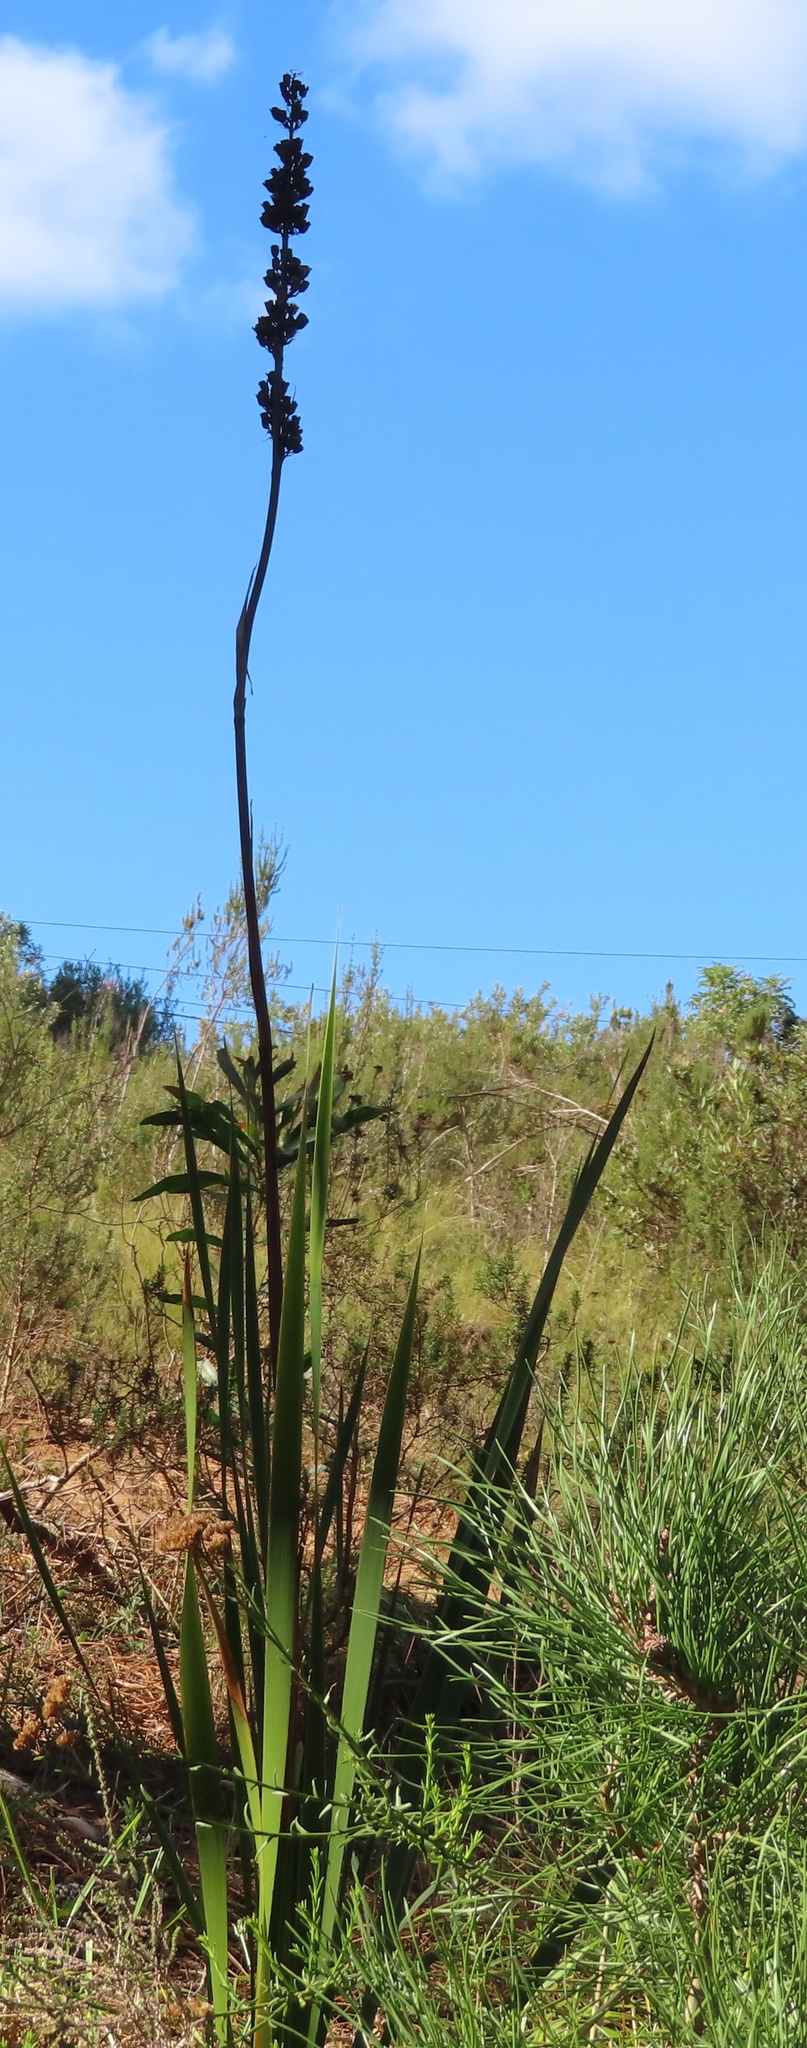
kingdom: Plantae
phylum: Tracheophyta
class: Liliopsida
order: Asparagales
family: Iridaceae
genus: Aristea
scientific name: Aristea capitata
